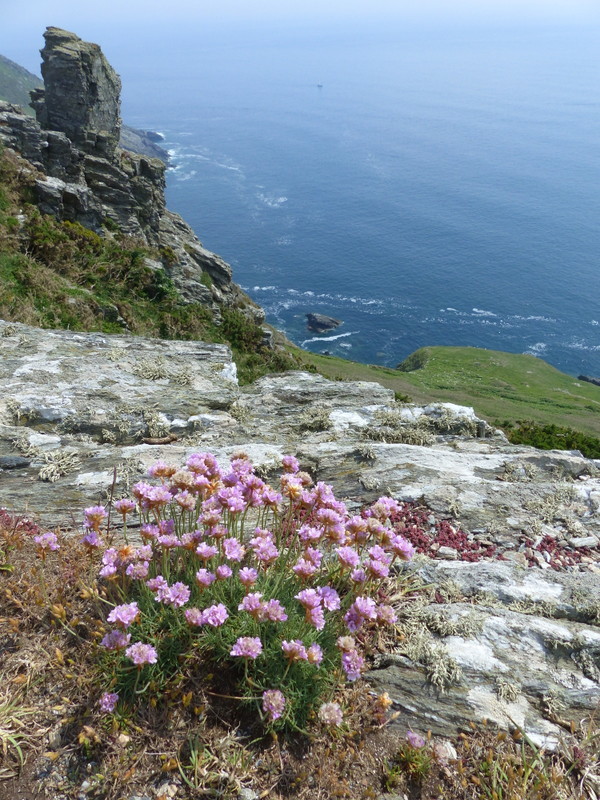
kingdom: Plantae
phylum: Tracheophyta
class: Magnoliopsida
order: Caryophyllales
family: Plumbaginaceae
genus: Armeria
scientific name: Armeria maritima
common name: Thrift
